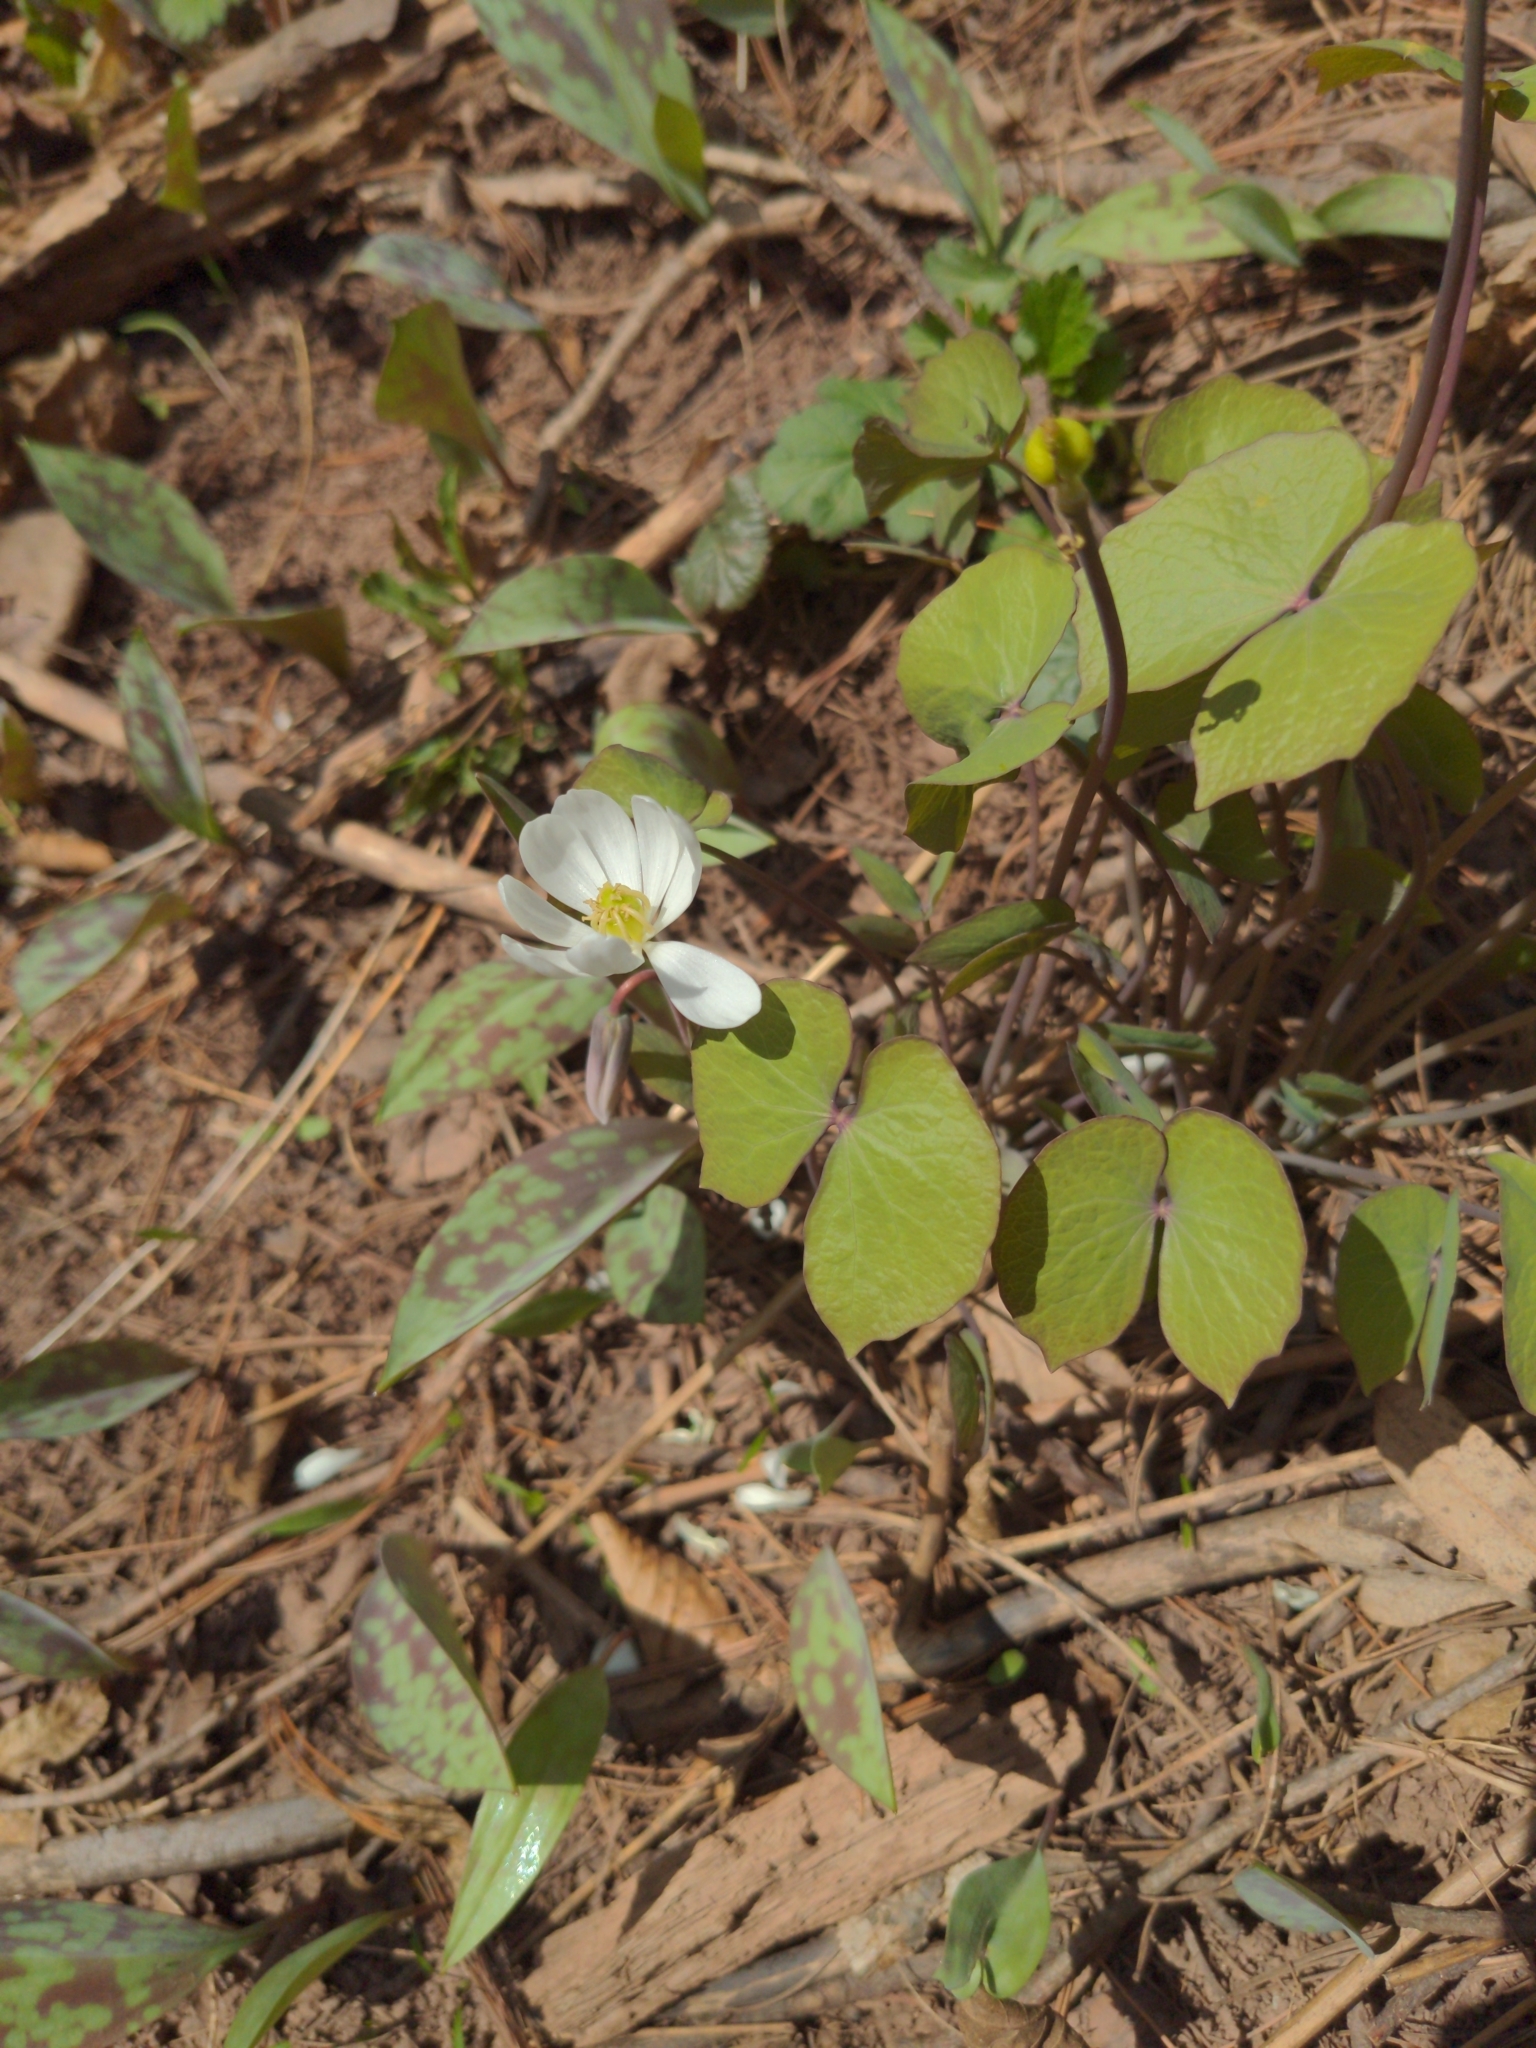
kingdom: Plantae
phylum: Tracheophyta
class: Magnoliopsida
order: Ranunculales
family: Berberidaceae
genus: Jeffersonia
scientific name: Jeffersonia diphylla
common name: Rheumatism-root
